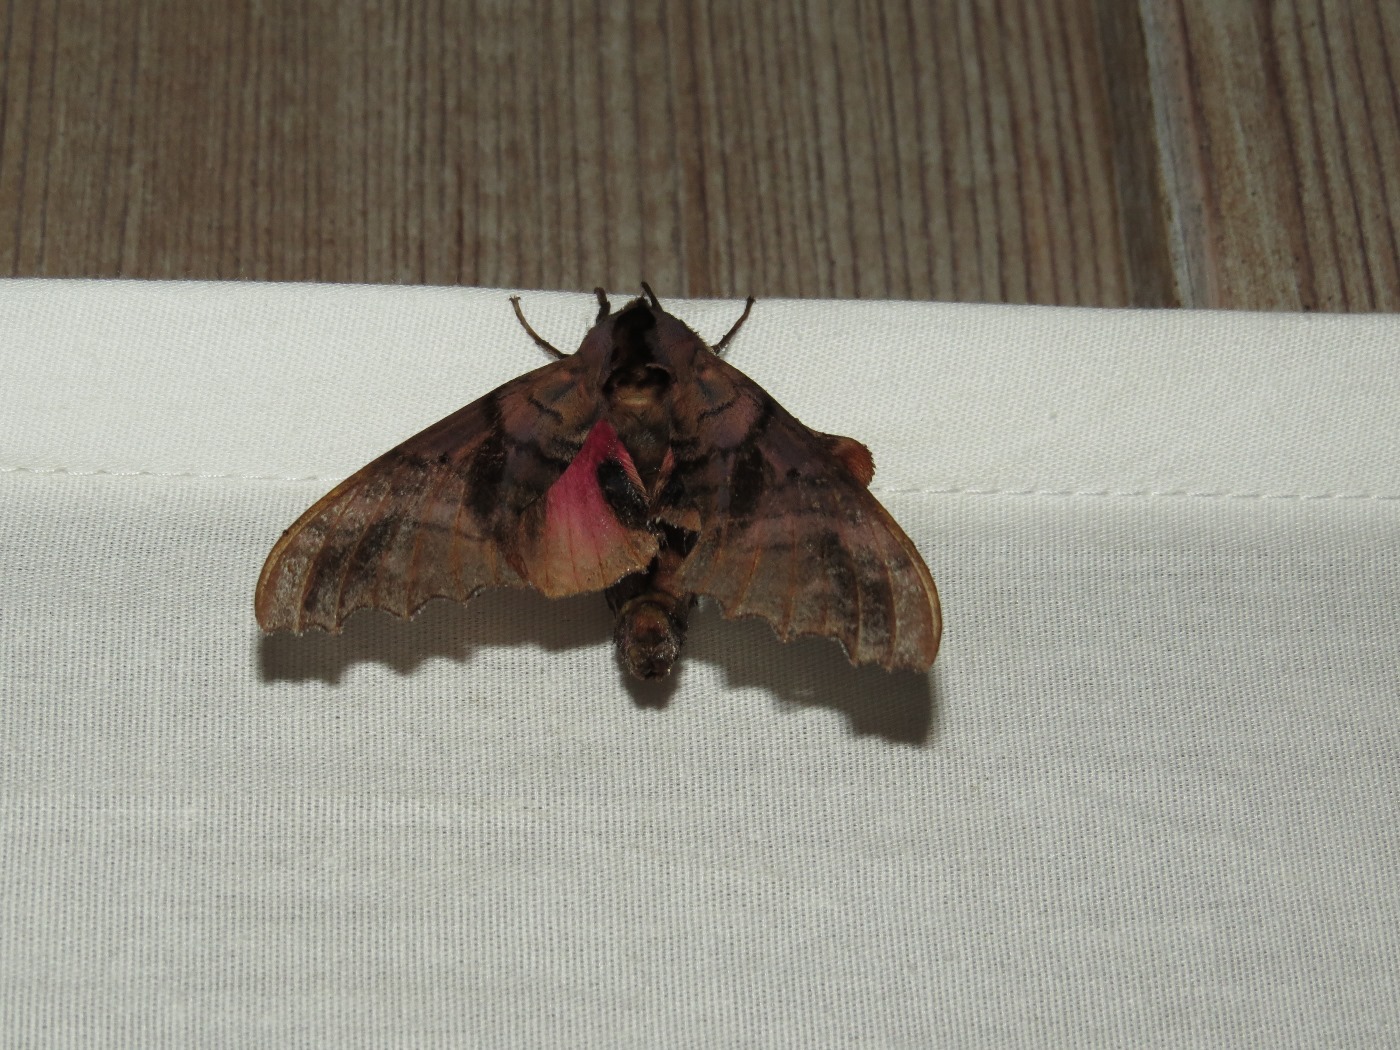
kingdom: Animalia
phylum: Arthropoda
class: Insecta
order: Lepidoptera
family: Sphingidae
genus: Paonias
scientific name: Paonias excaecata
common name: Blind-eyed sphinx
